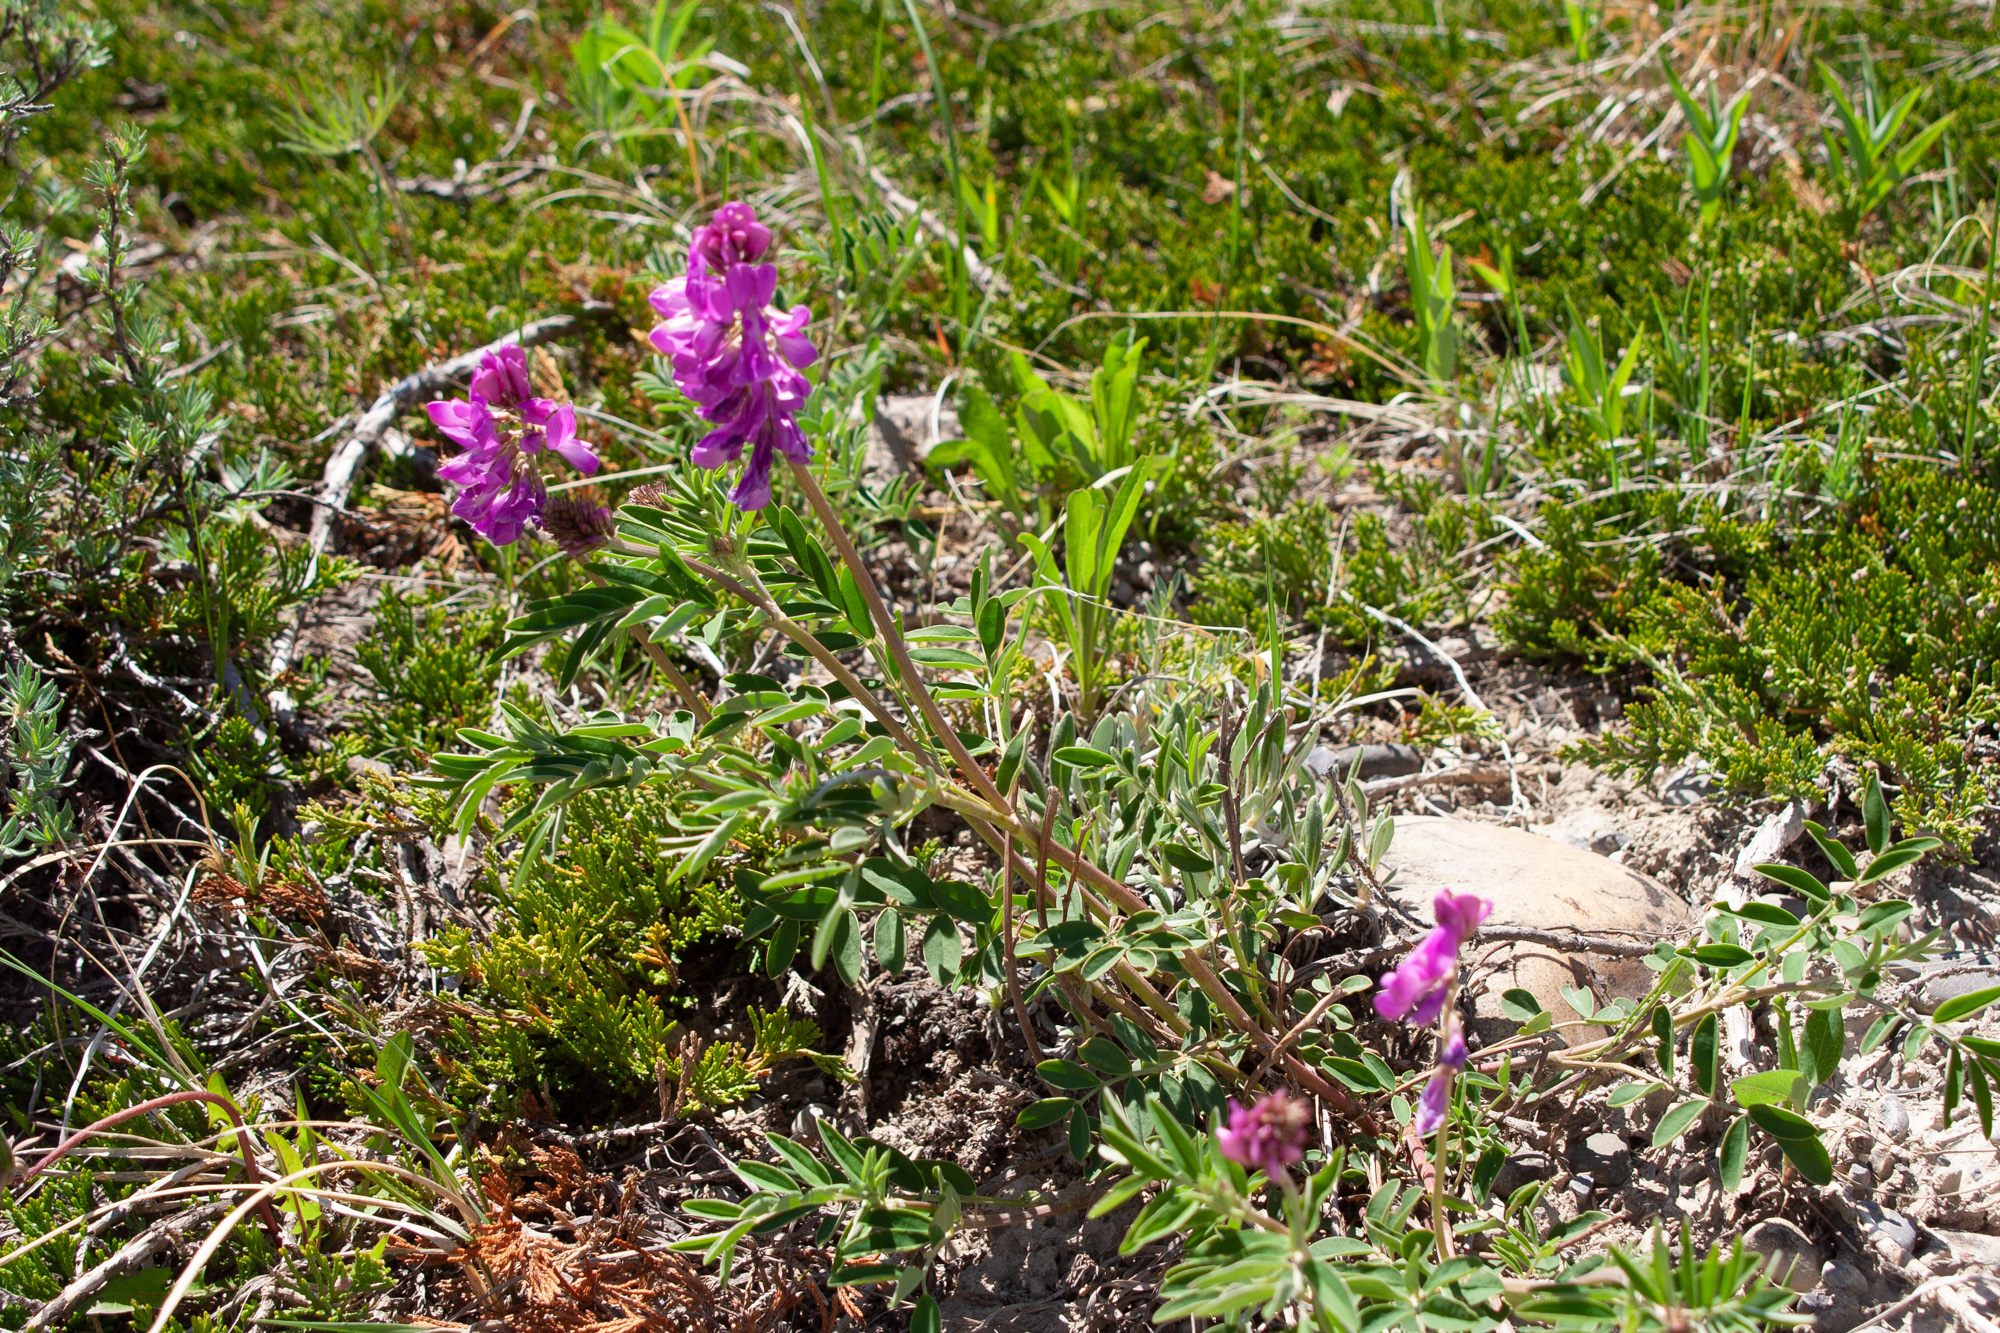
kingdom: Plantae
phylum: Tracheophyta
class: Magnoliopsida
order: Fabales
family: Fabaceae
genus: Hedysarum
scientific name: Hedysarum boreale
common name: Northern sweet-vetch
